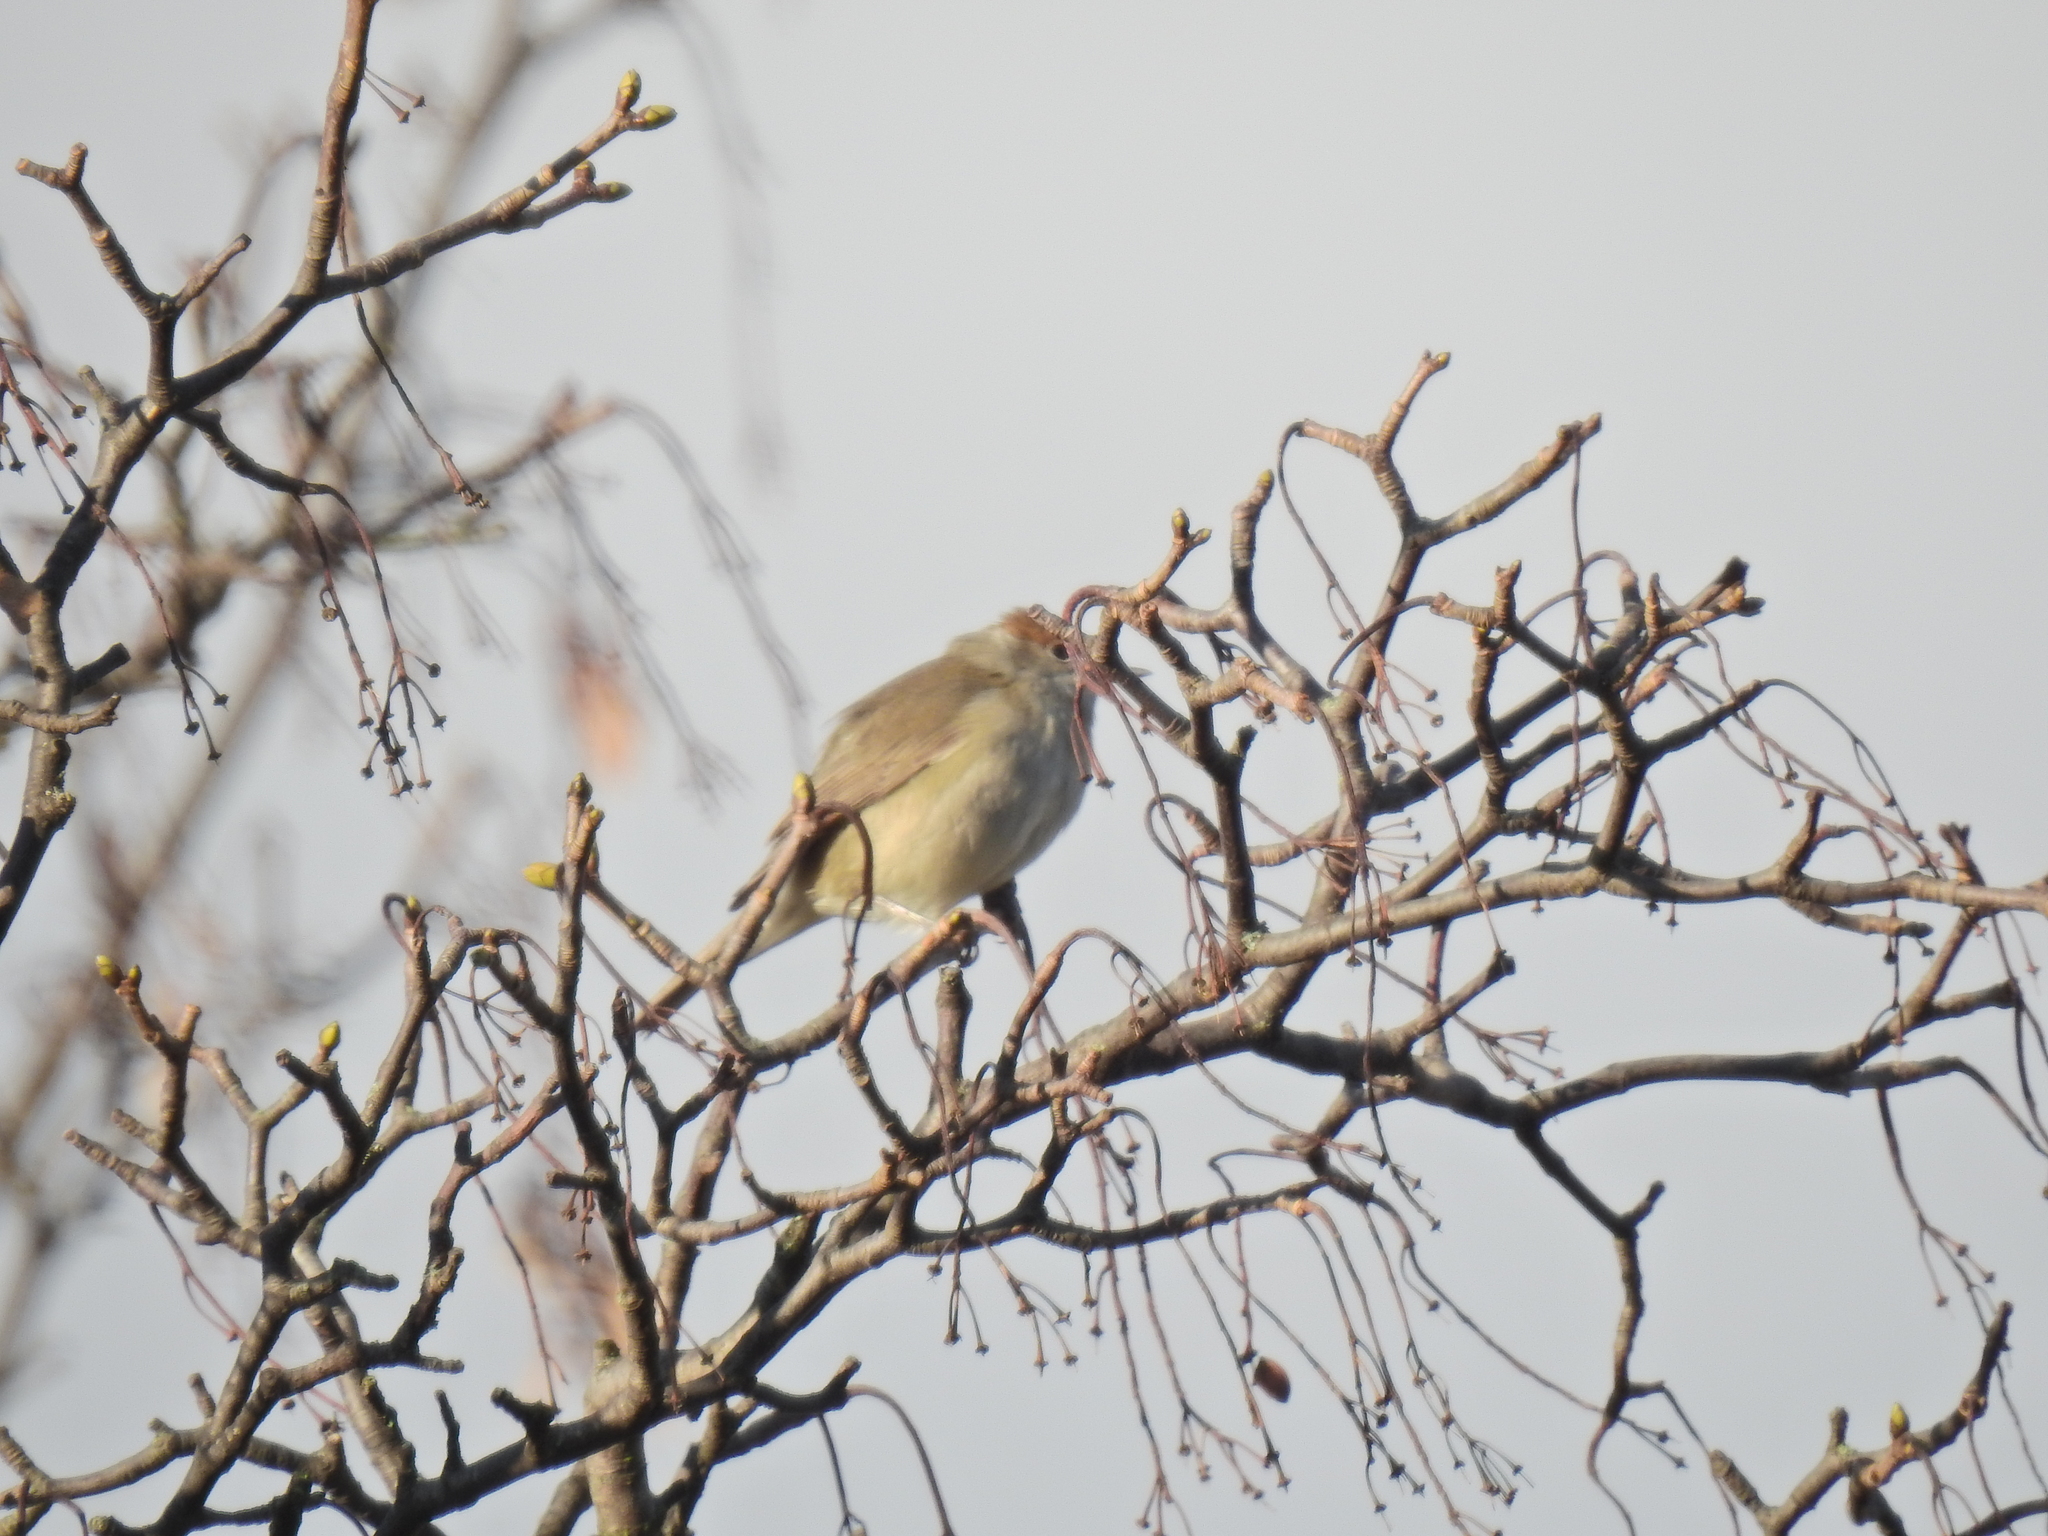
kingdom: Animalia
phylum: Chordata
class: Aves
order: Passeriformes
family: Sylviidae
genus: Sylvia
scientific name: Sylvia atricapilla
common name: Eurasian blackcap
